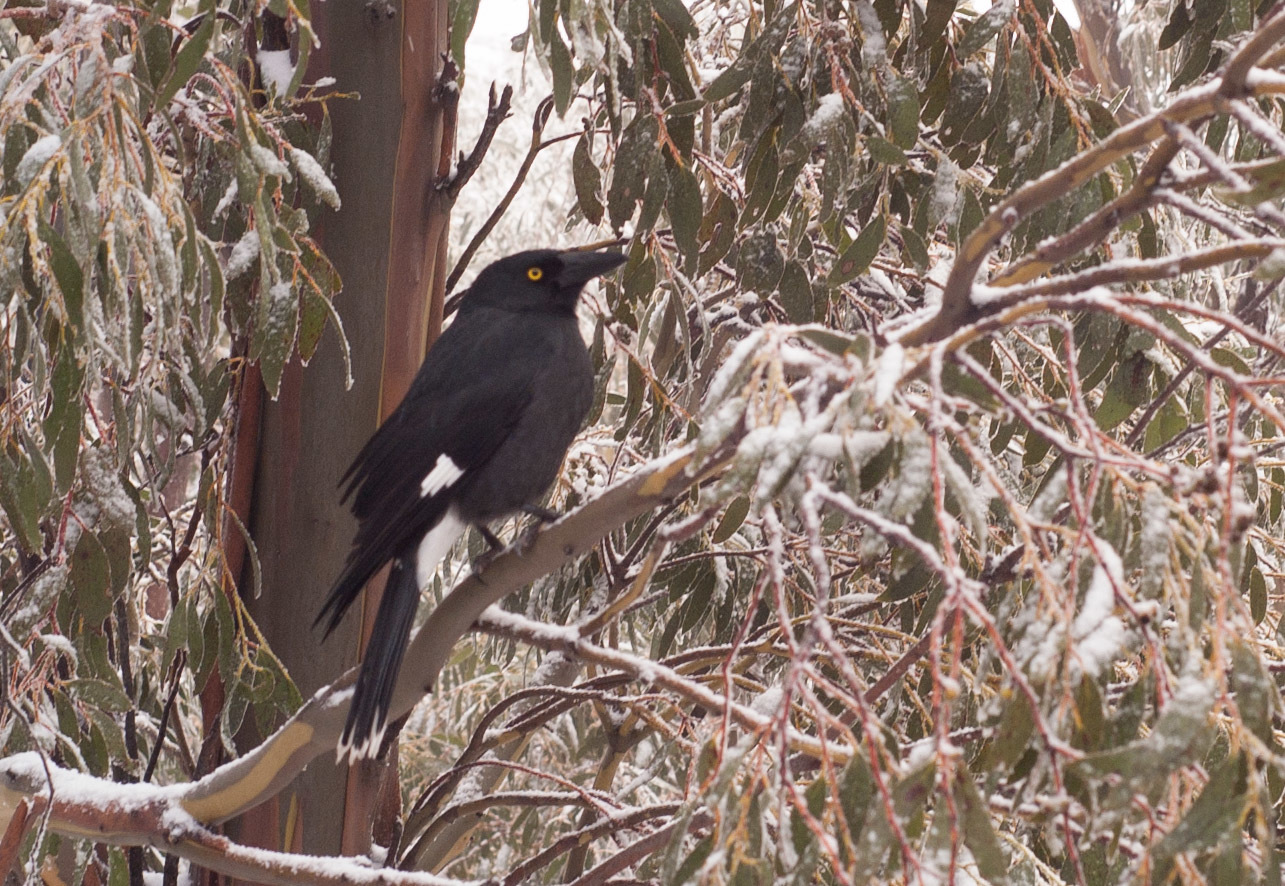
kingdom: Animalia
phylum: Chordata
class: Aves
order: Passeriformes
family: Cracticidae
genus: Strepera
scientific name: Strepera graculina
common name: Pied currawong
